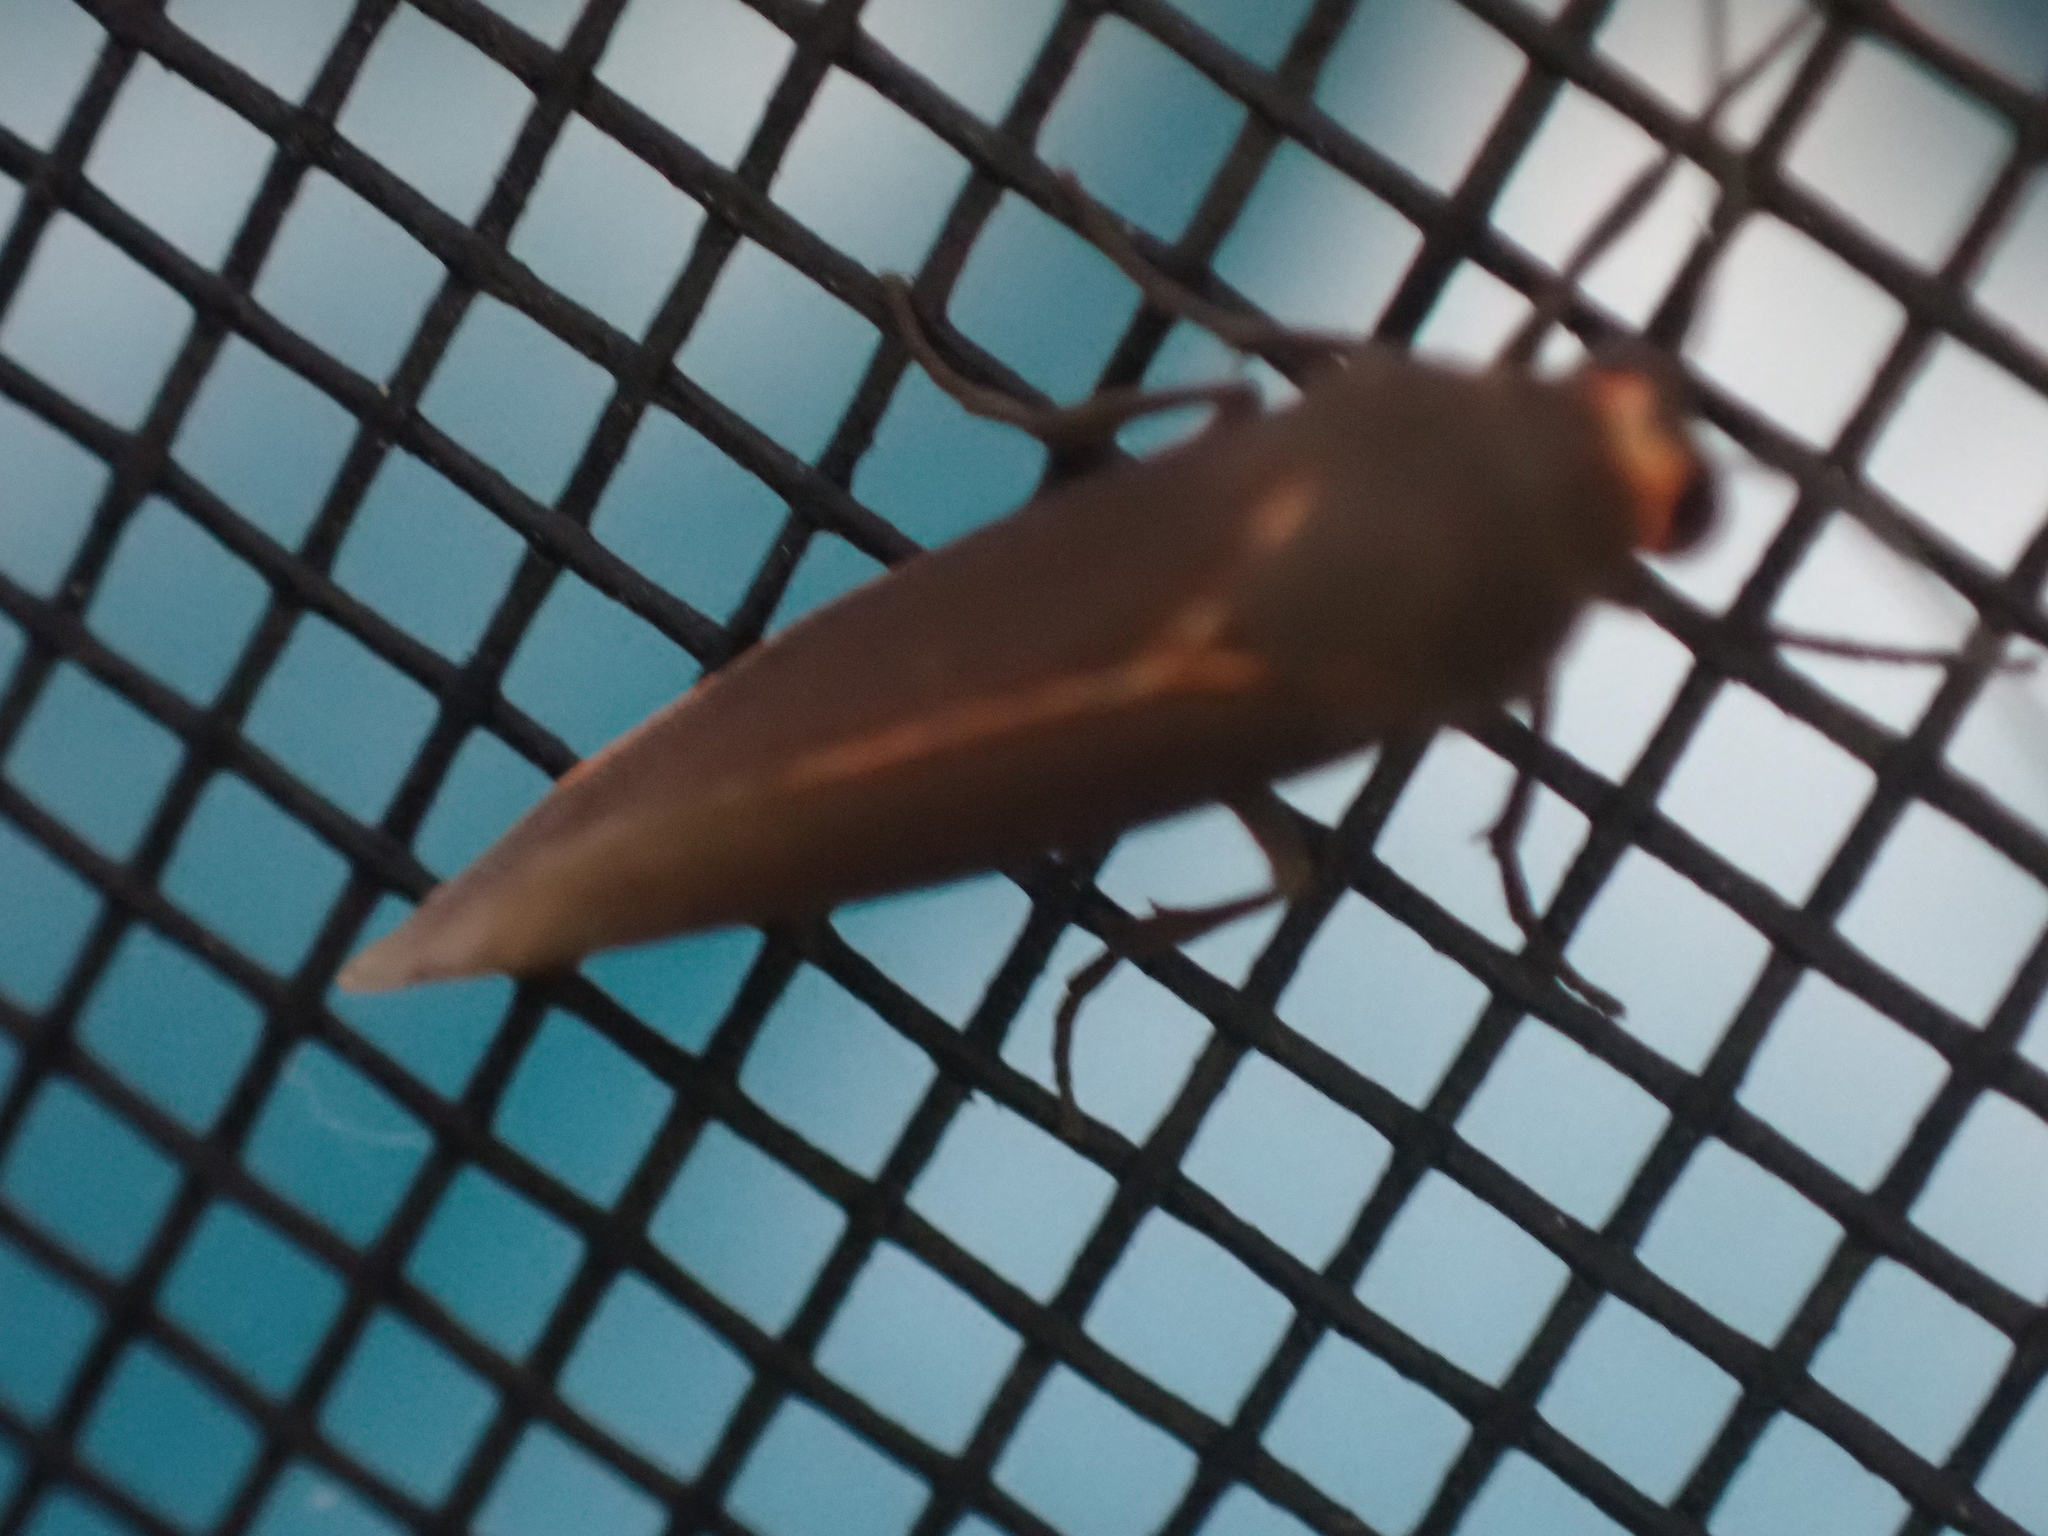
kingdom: Animalia
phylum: Arthropoda
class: Insecta
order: Lepidoptera
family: Erebidae
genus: Virbia
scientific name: Virbia laeta
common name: Joyful holomelina moth
